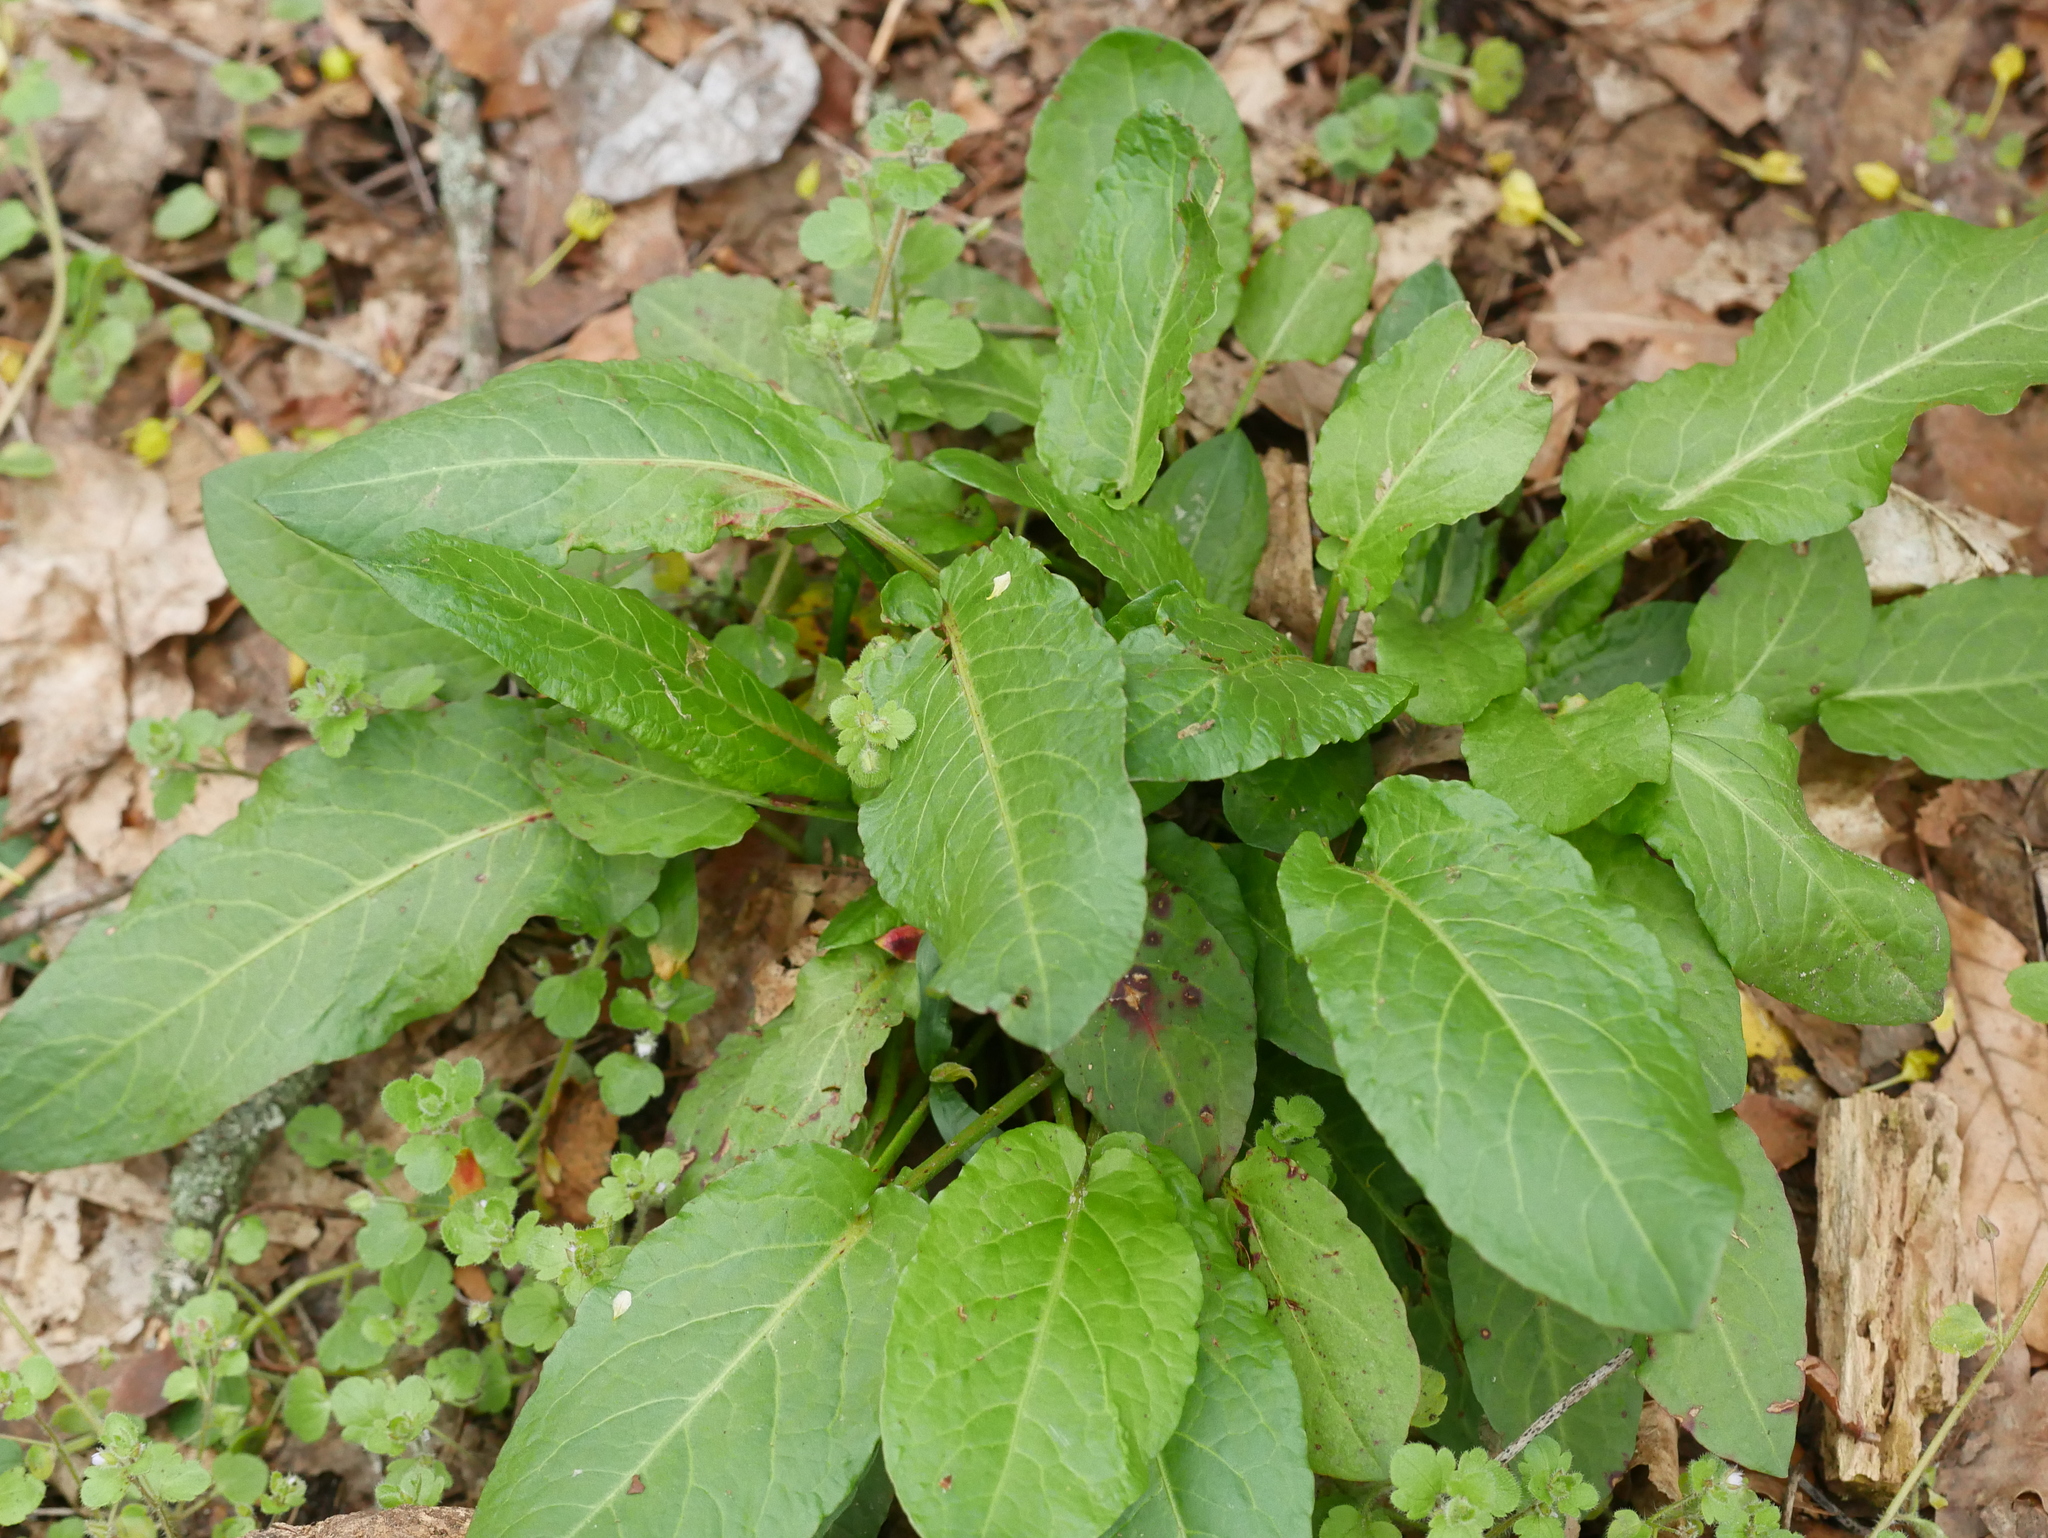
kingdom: Plantae
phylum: Tracheophyta
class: Magnoliopsida
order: Caryophyllales
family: Polygonaceae
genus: Rumex
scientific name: Rumex obtusifolius
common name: Bitter dock
